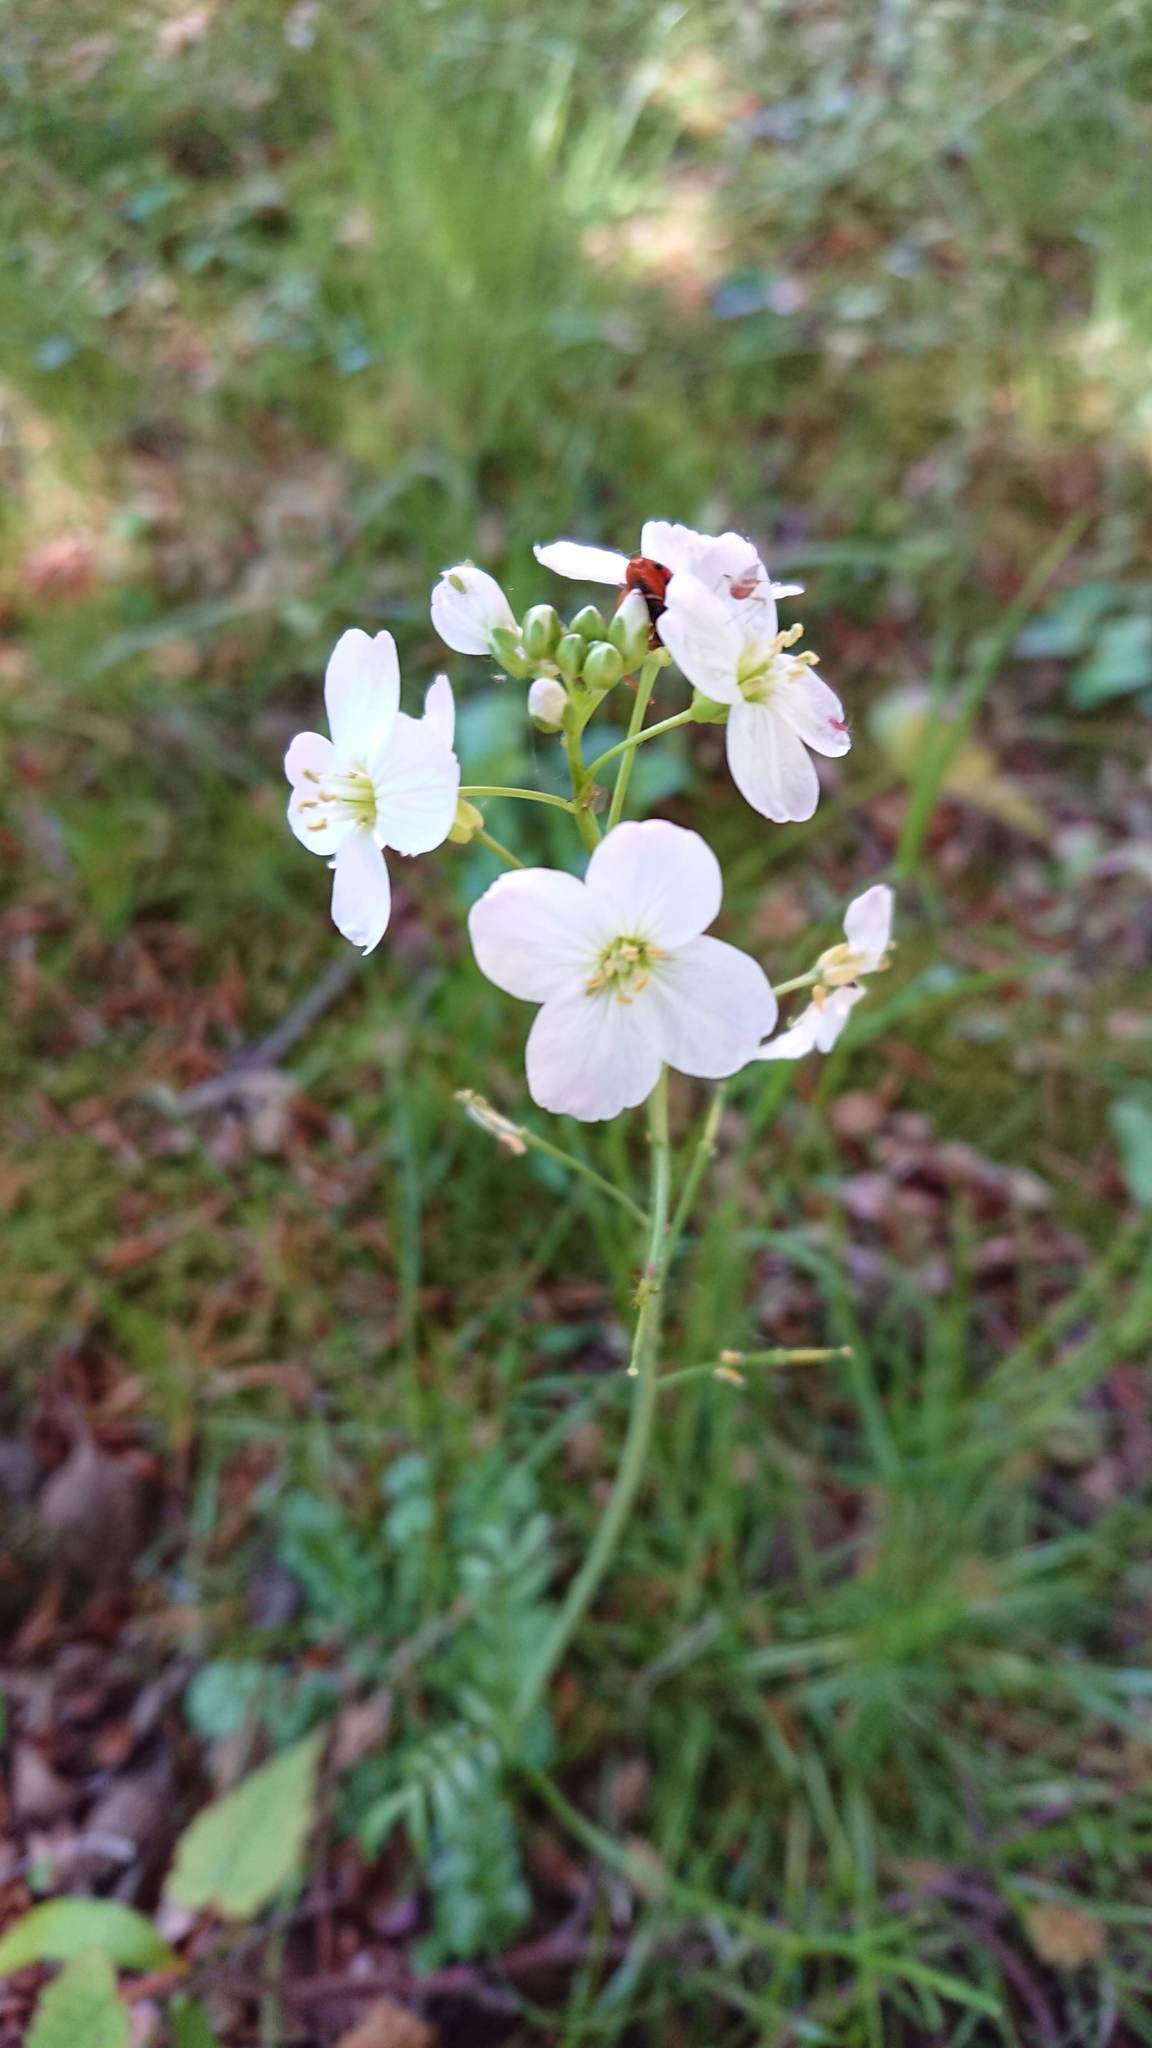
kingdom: Plantae
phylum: Tracheophyta
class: Magnoliopsida
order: Brassicales
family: Brassicaceae
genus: Cardamine
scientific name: Cardamine pratensis
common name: Cuckoo flower
